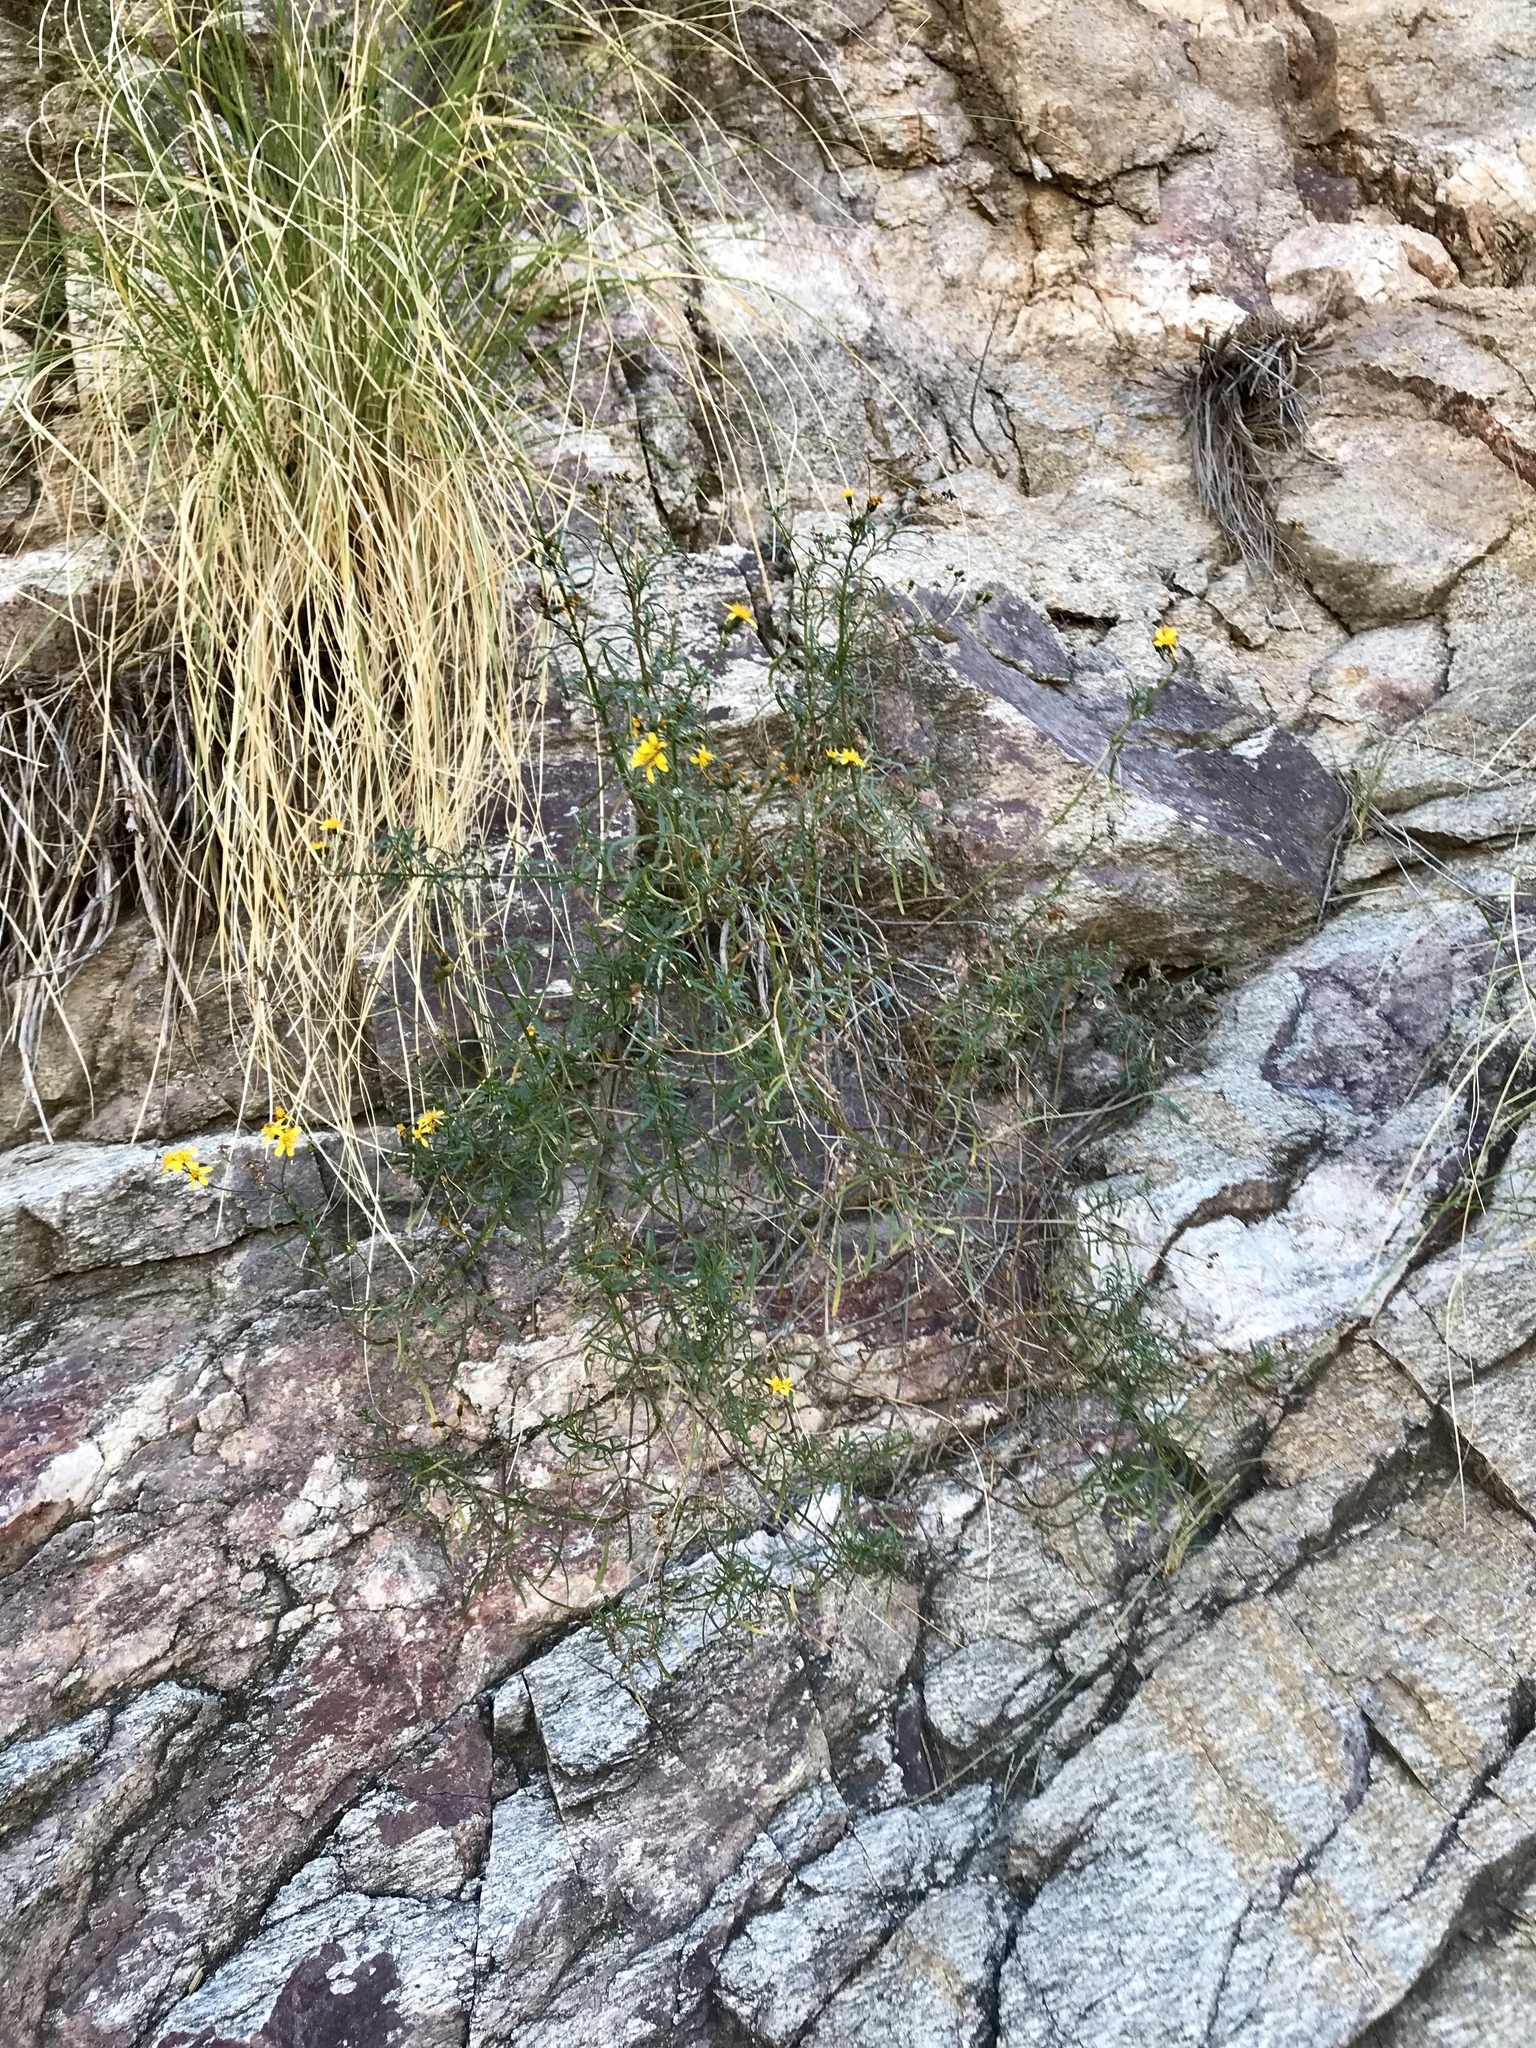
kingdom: Plantae
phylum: Tracheophyta
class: Magnoliopsida
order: Asterales
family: Asteraceae
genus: Coreocarpus
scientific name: Coreocarpus arizonicus
